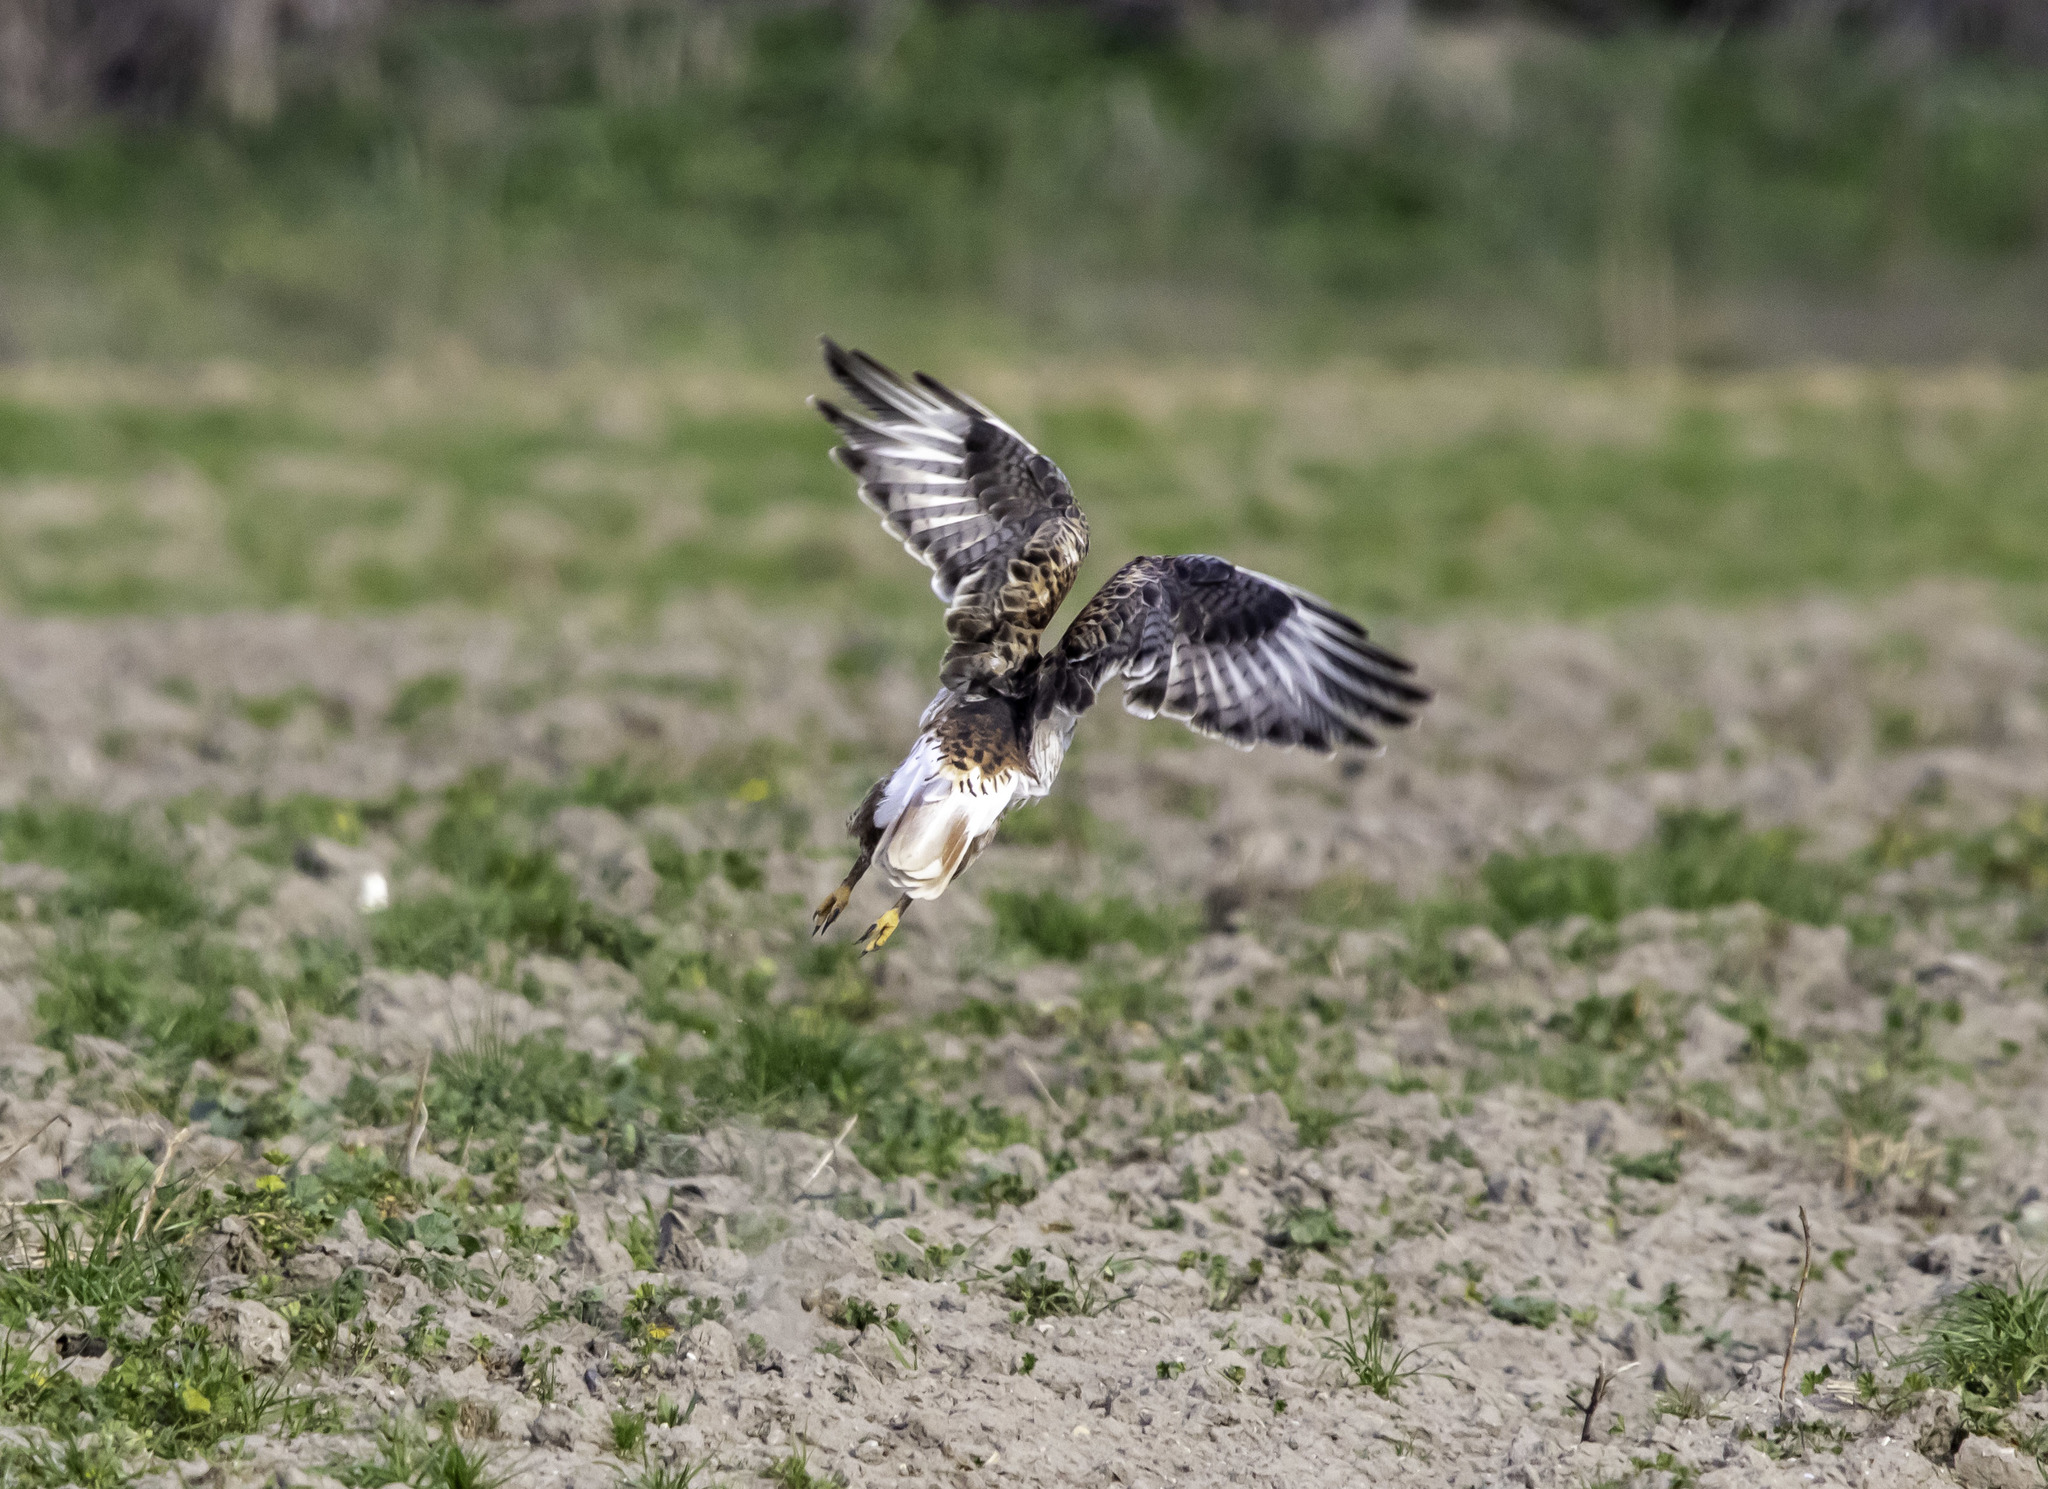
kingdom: Animalia
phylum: Chordata
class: Aves
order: Accipitriformes
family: Accipitridae
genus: Buteo
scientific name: Buteo regalis
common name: Ferruginous hawk
